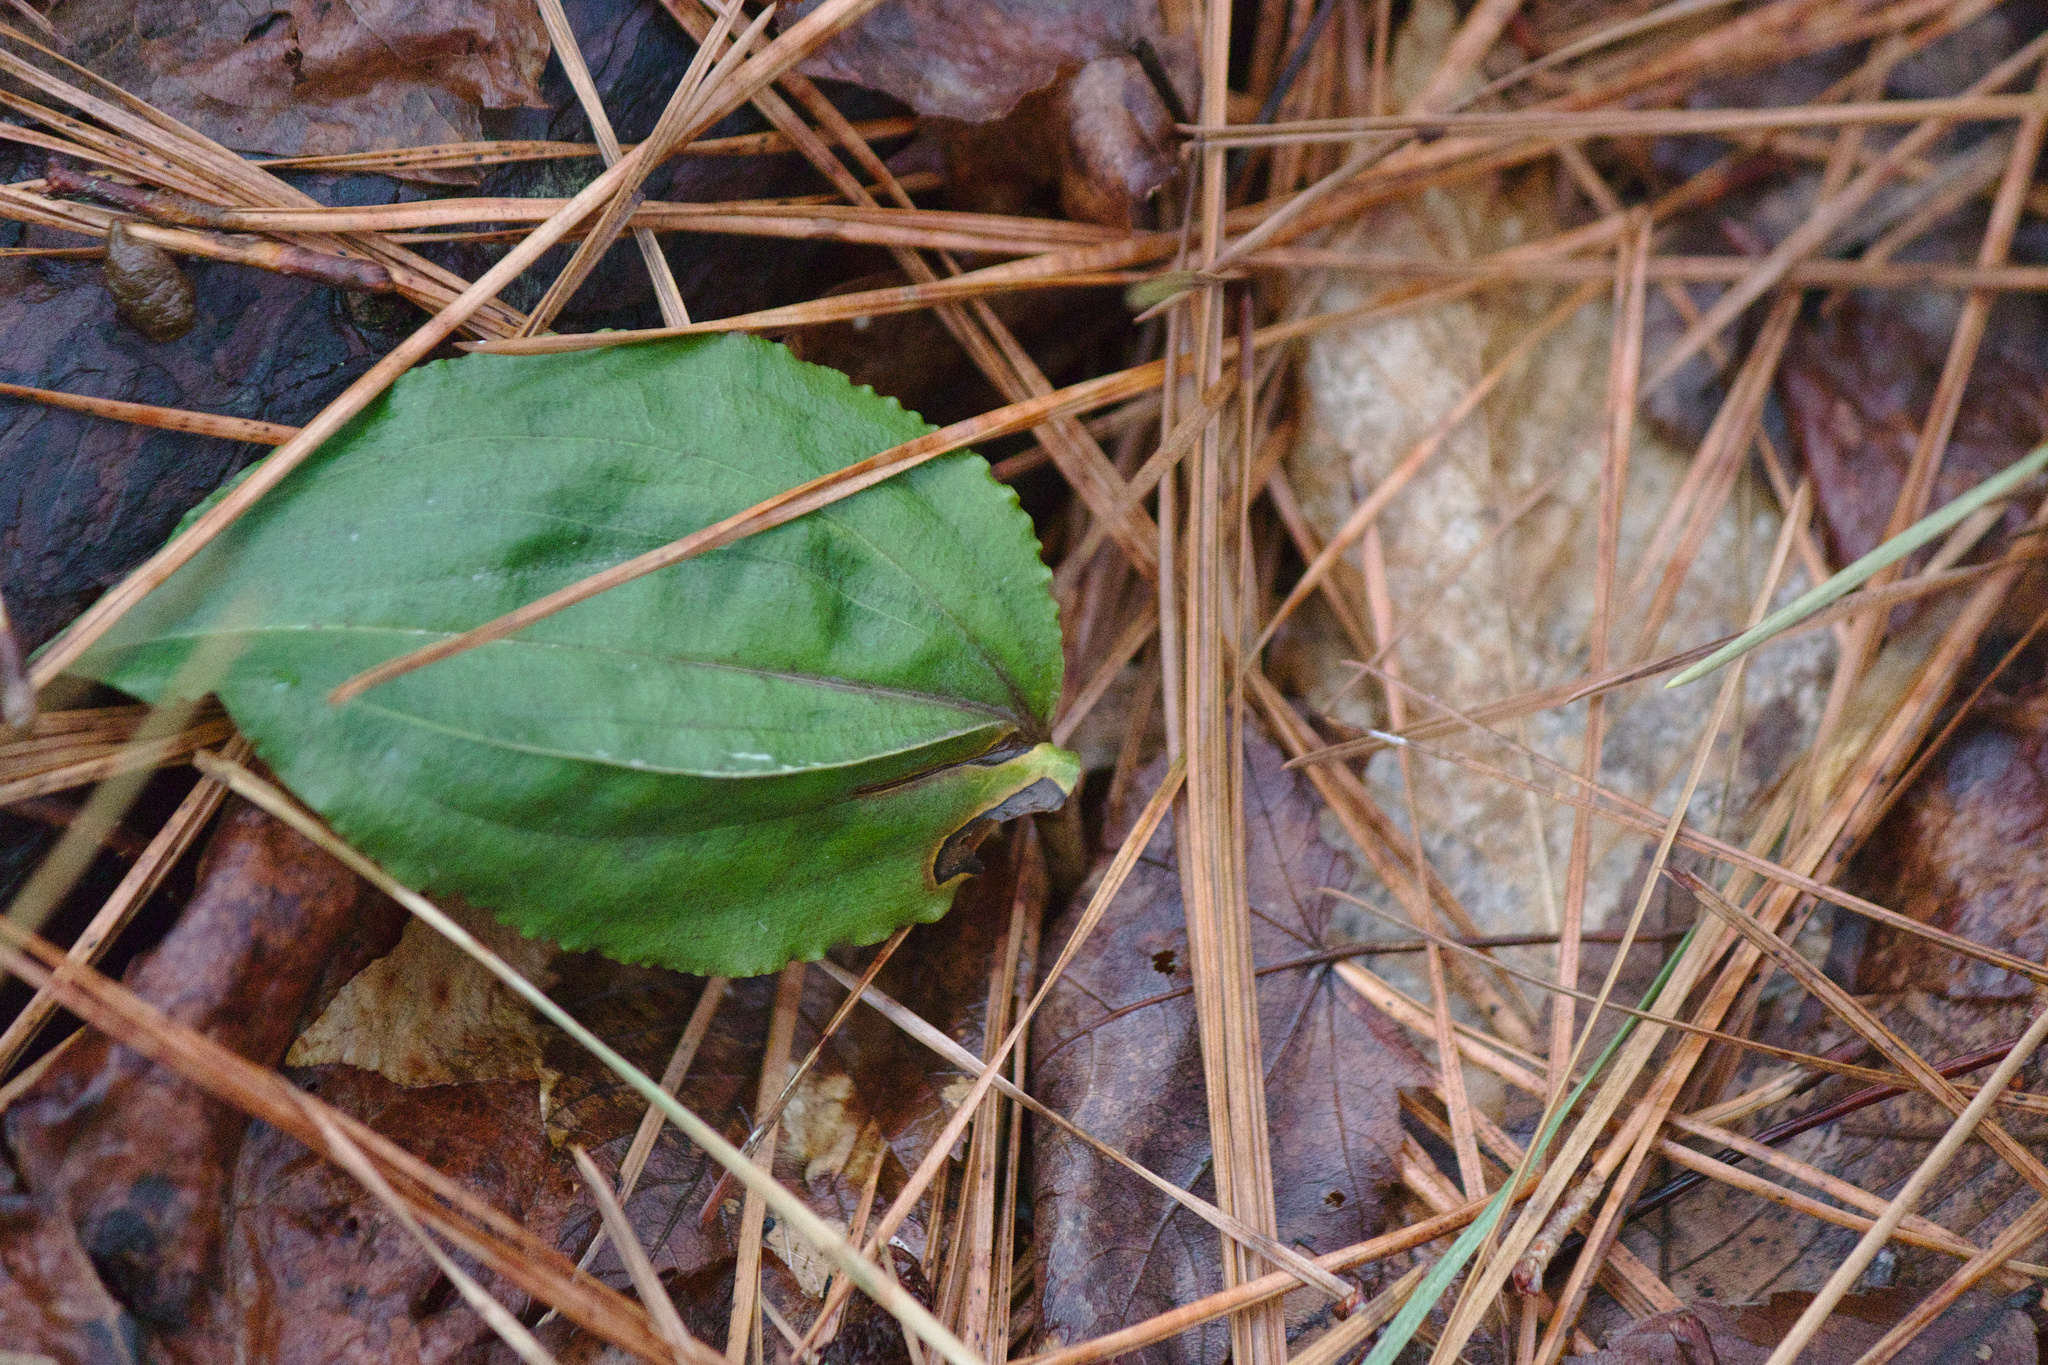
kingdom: Plantae
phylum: Tracheophyta
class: Liliopsida
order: Asparagales
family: Orchidaceae
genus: Tipularia
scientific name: Tipularia discolor
